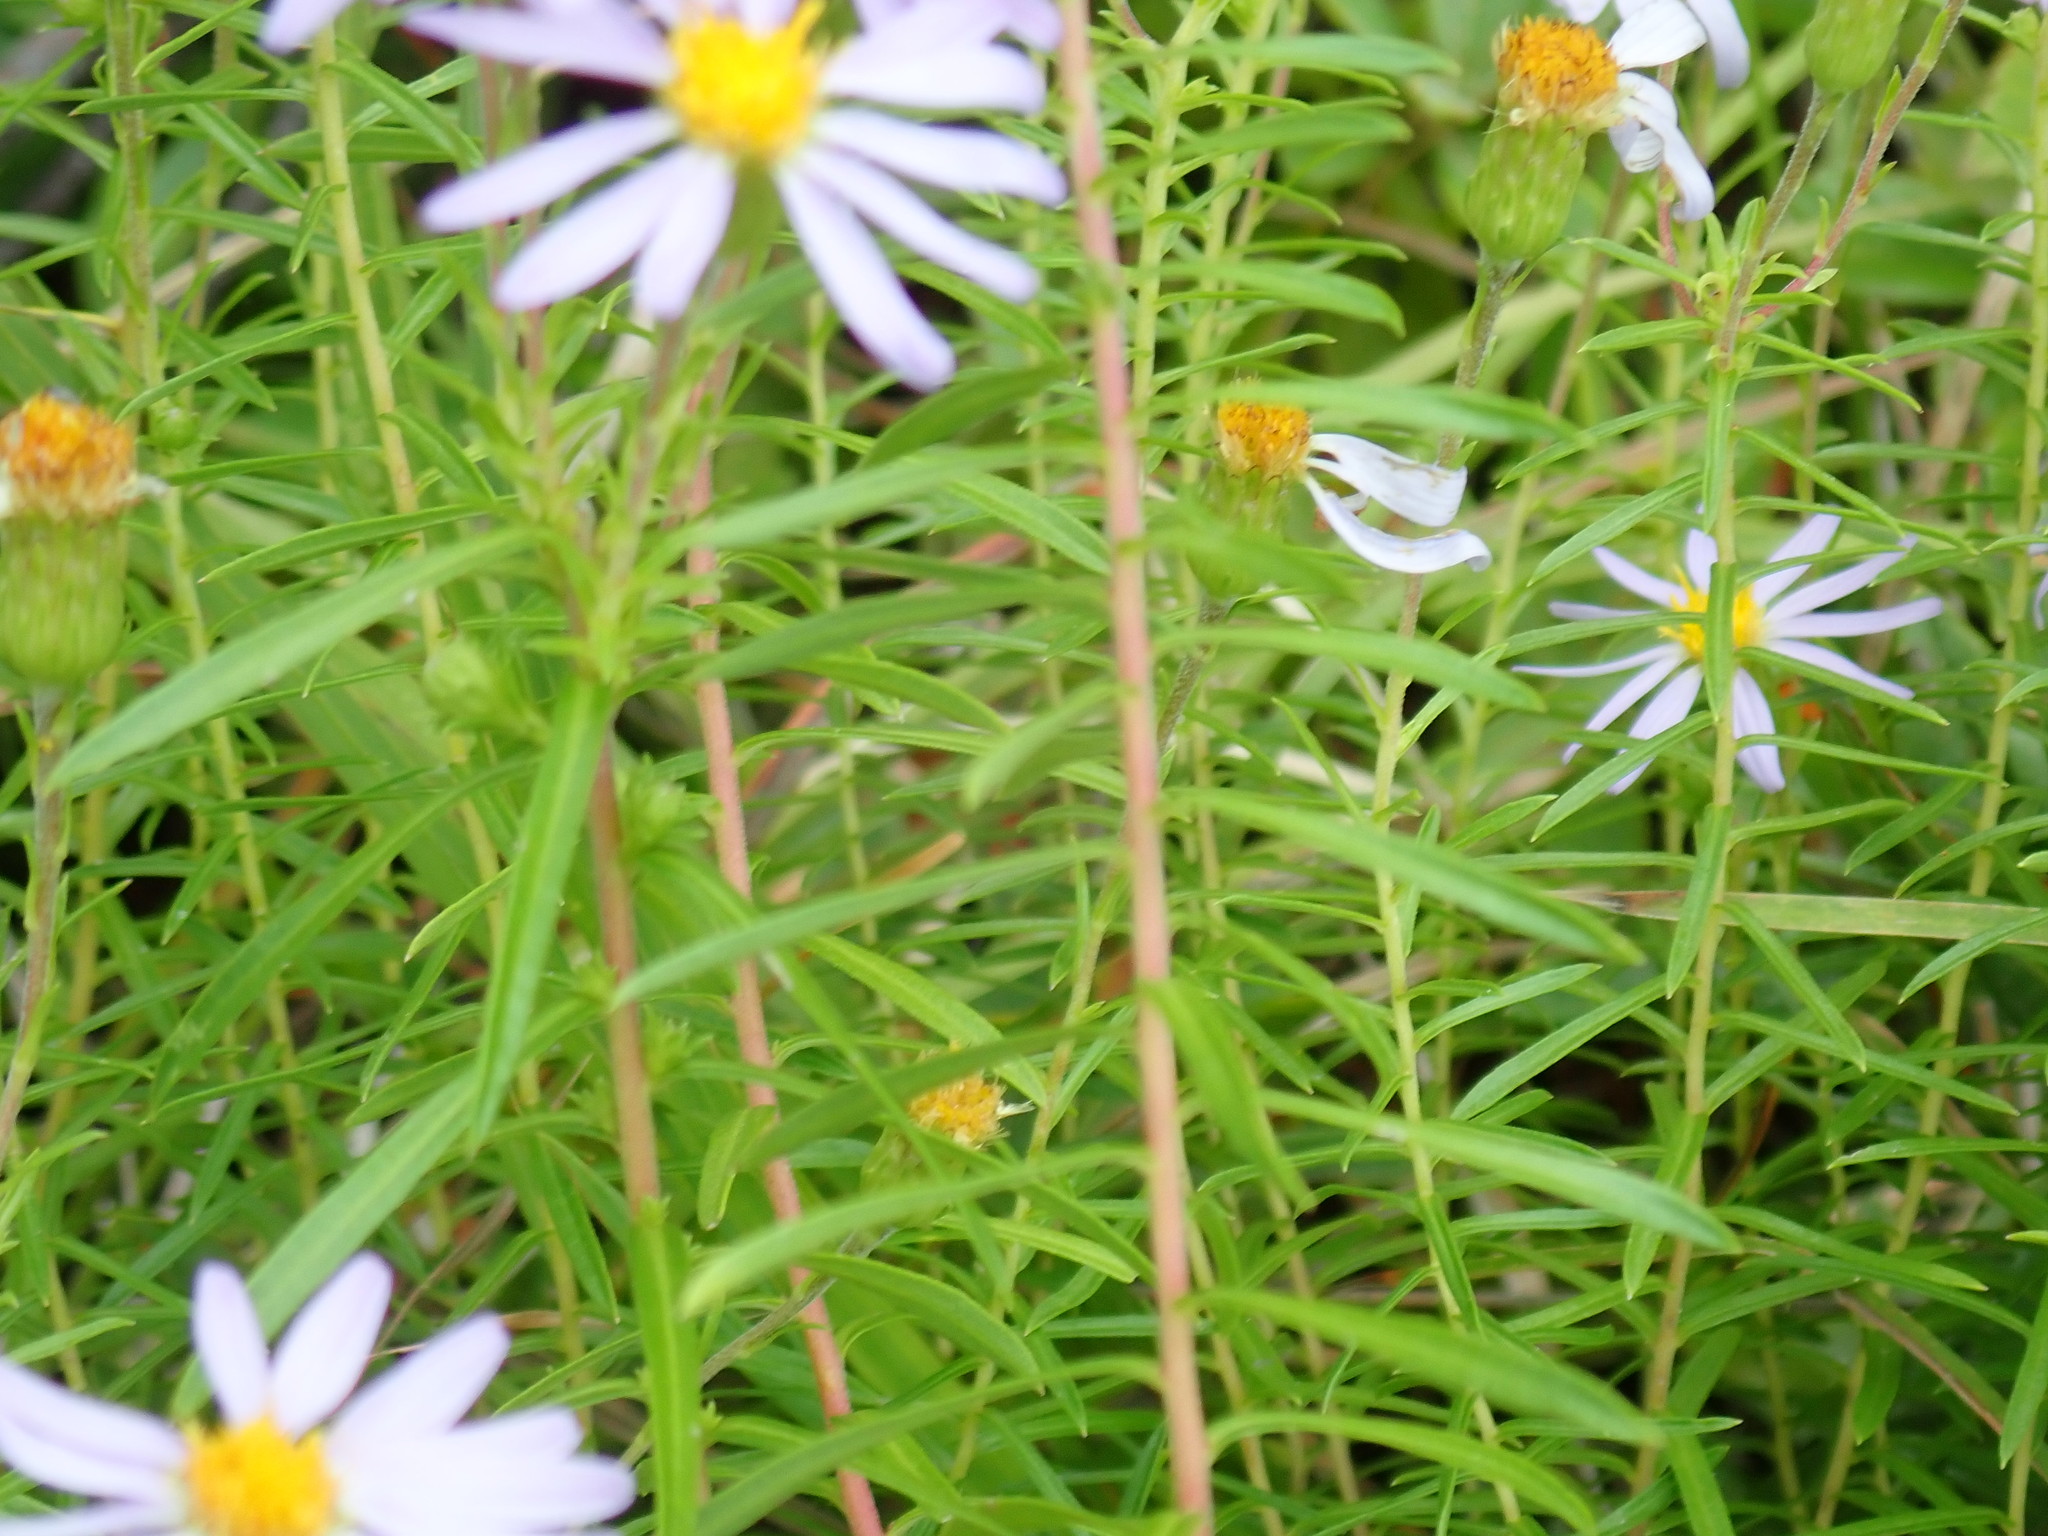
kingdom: Plantae
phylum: Tracheophyta
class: Magnoliopsida
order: Asterales
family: Asteraceae
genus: Ionactis
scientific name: Ionactis linariifolia
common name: Flax-leaf aster
